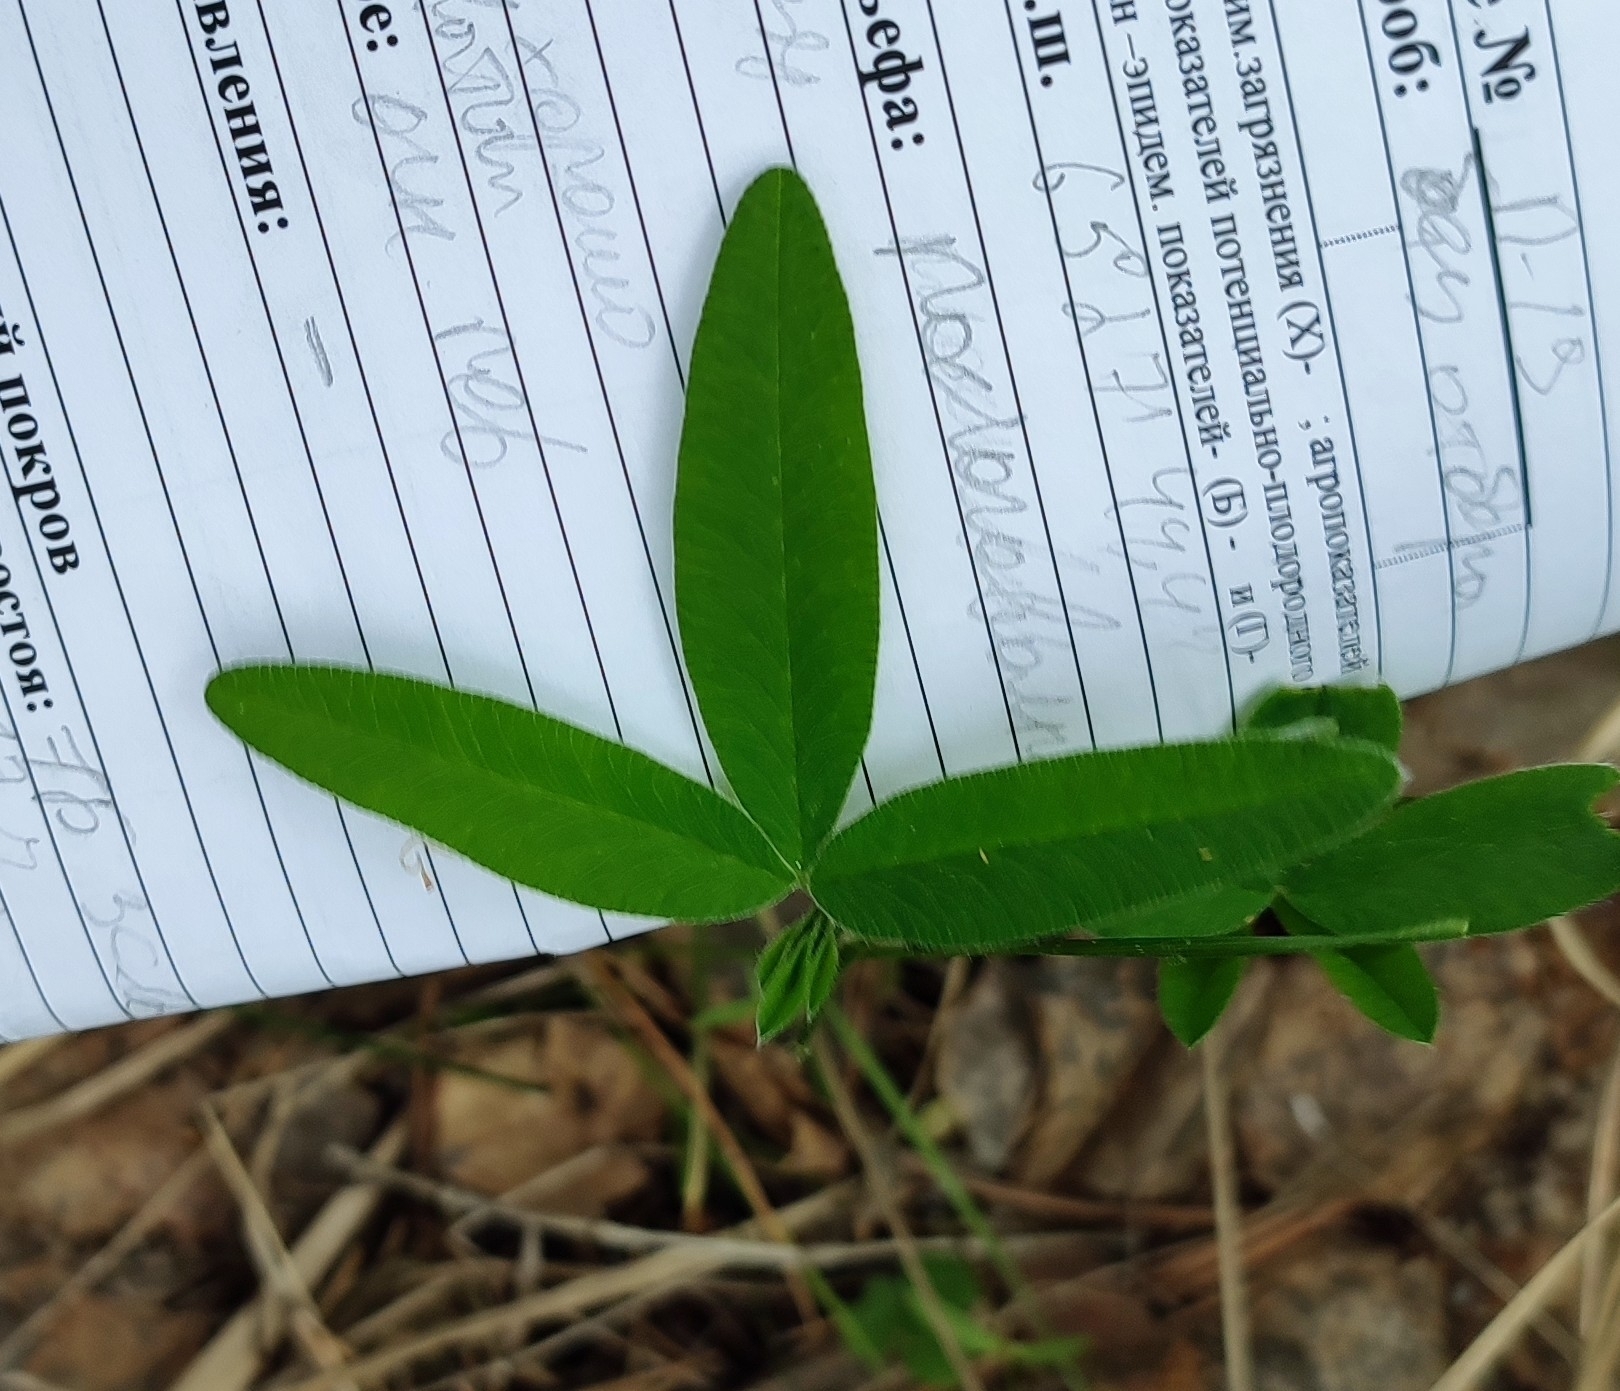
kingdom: Plantae
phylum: Tracheophyta
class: Magnoliopsida
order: Fabales
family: Fabaceae
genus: Trifolium
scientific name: Trifolium medium
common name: Zigzag clover
